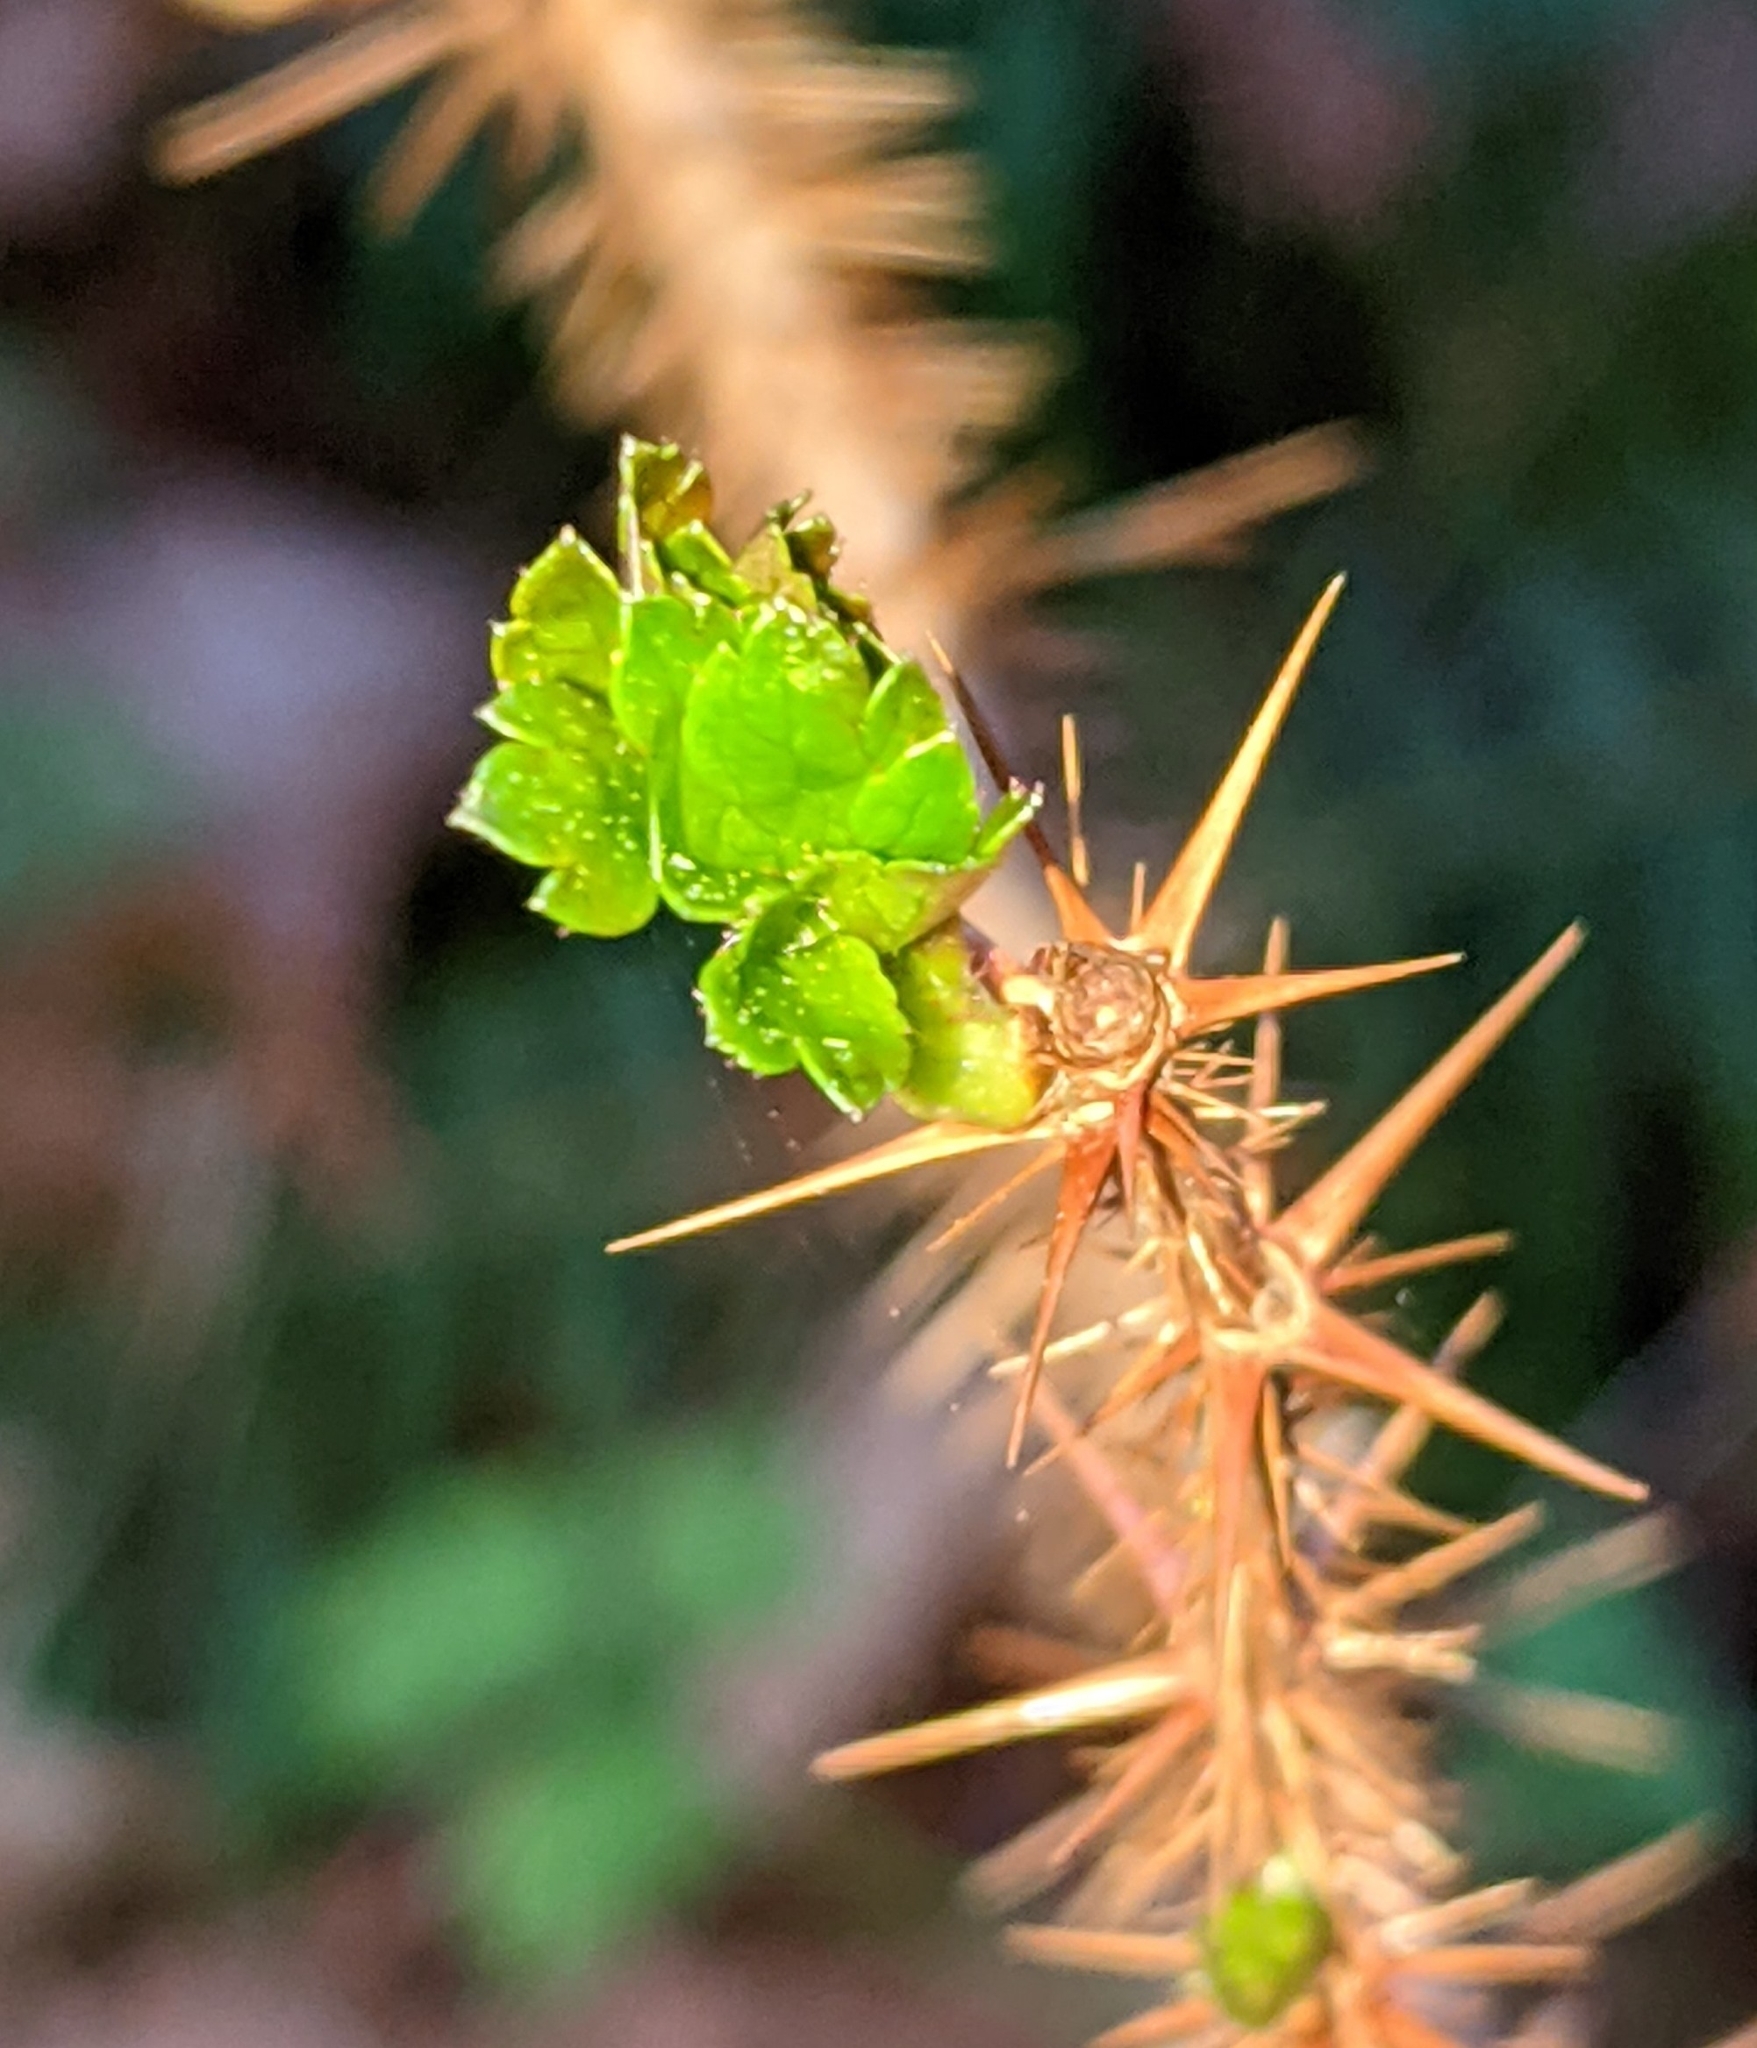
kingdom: Plantae
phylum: Tracheophyta
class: Magnoliopsida
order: Saxifragales
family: Grossulariaceae
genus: Ribes
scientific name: Ribes lacustre
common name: Black gooseberry
